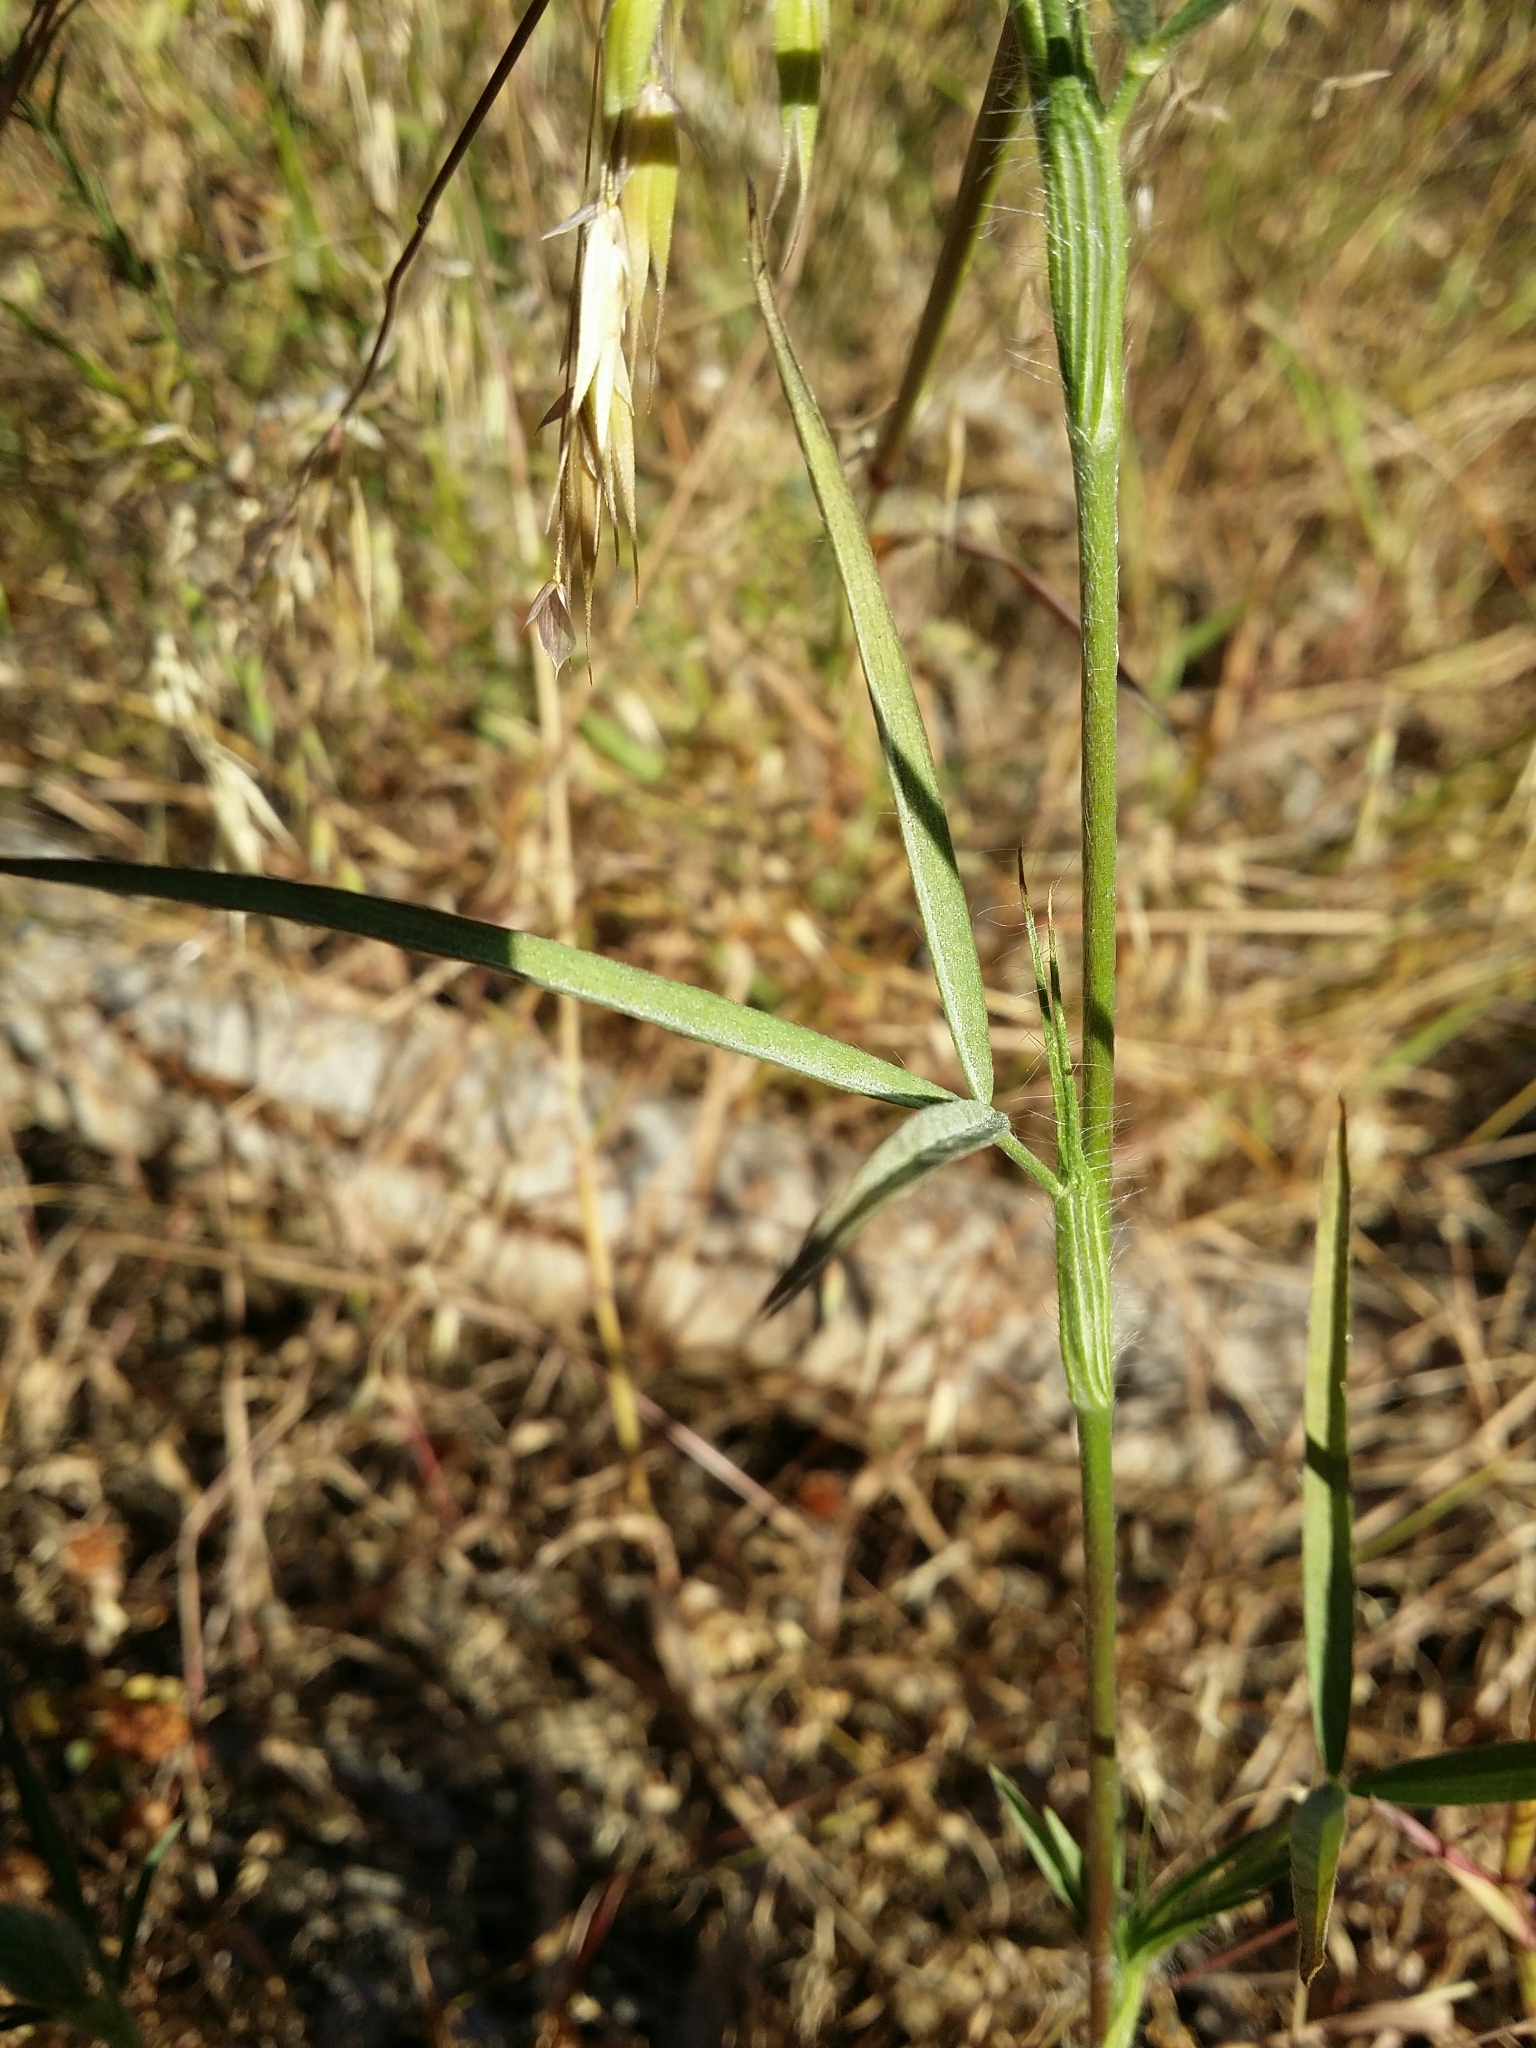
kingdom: Plantae
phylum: Tracheophyta
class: Magnoliopsida
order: Fabales
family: Fabaceae
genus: Trifolium
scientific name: Trifolium angustifolium
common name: Narrow clover
